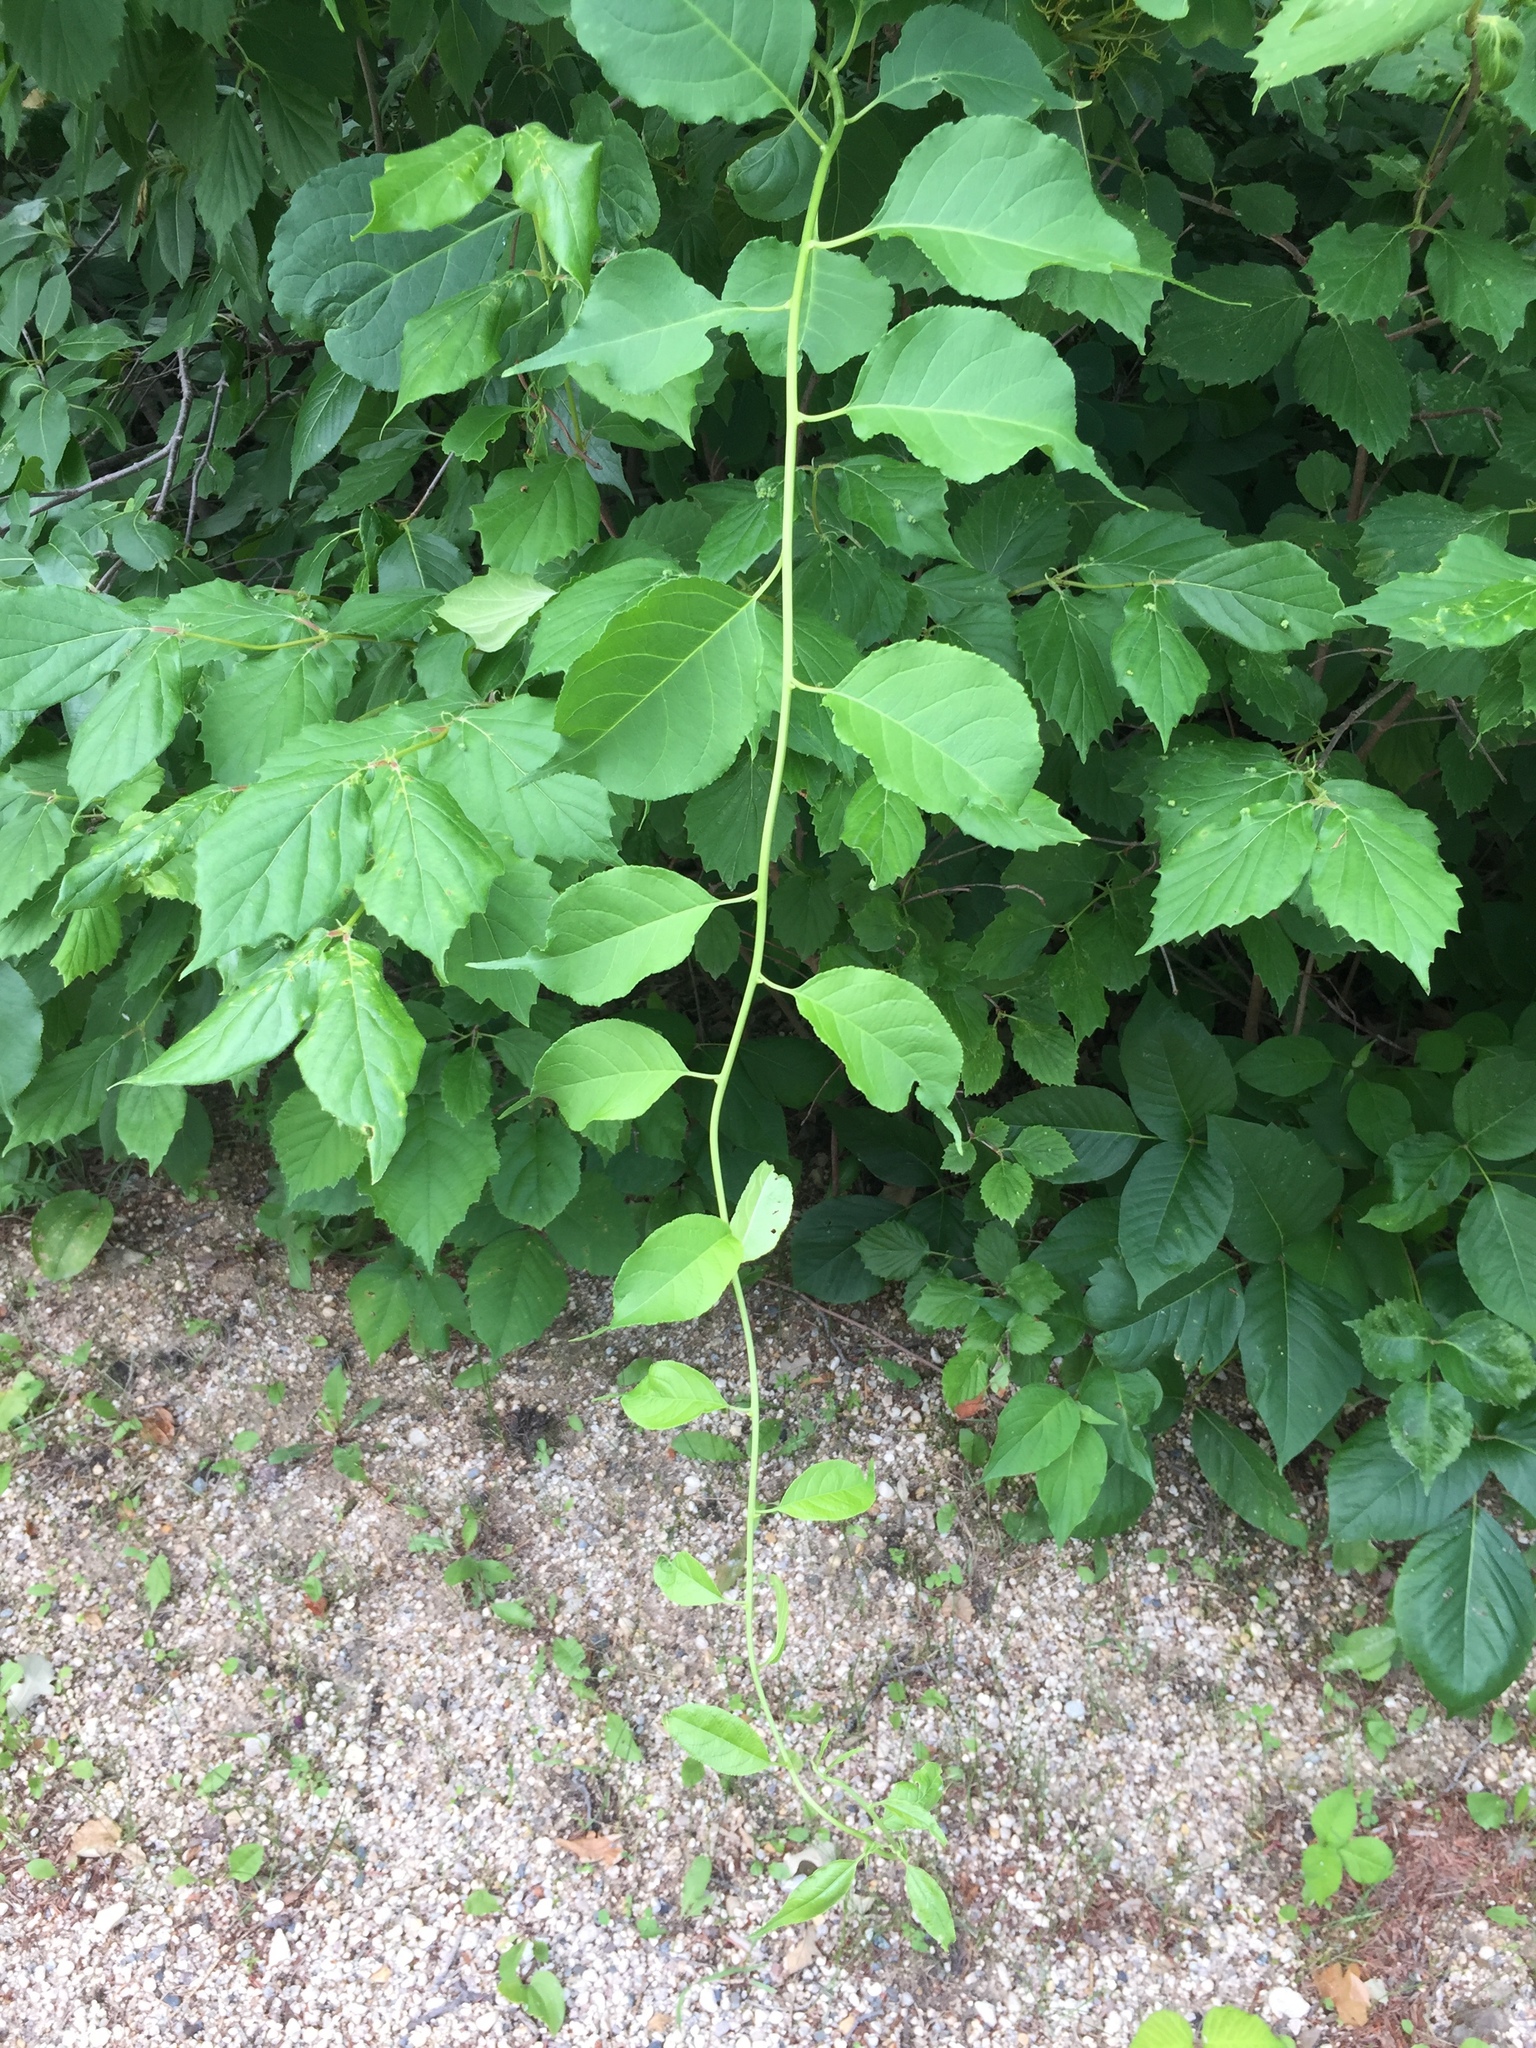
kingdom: Plantae
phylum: Tracheophyta
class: Magnoliopsida
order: Celastrales
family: Celastraceae
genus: Celastrus
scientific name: Celastrus scandens
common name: American bittersweet
